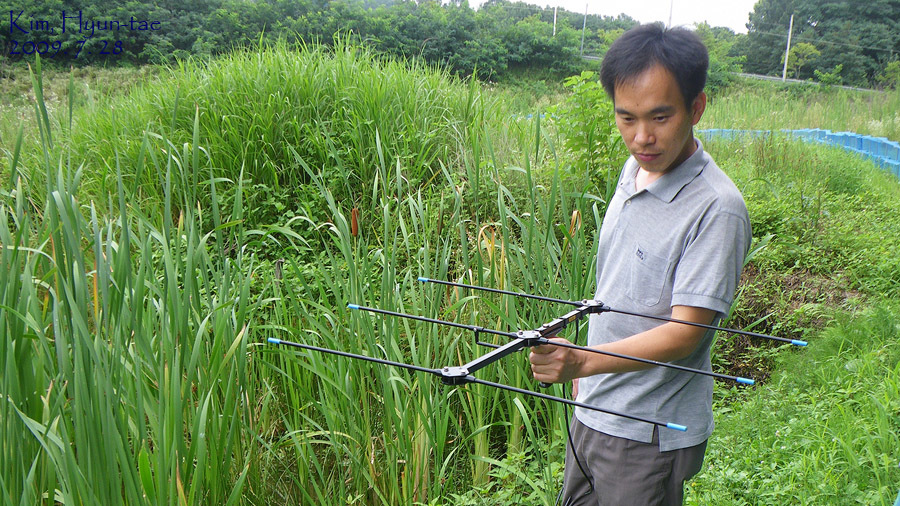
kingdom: Animalia
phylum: Chordata
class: Amphibia
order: Anura
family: Microhylidae
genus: Kaloula
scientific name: Kaloula borealis
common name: Boreal digging frog
